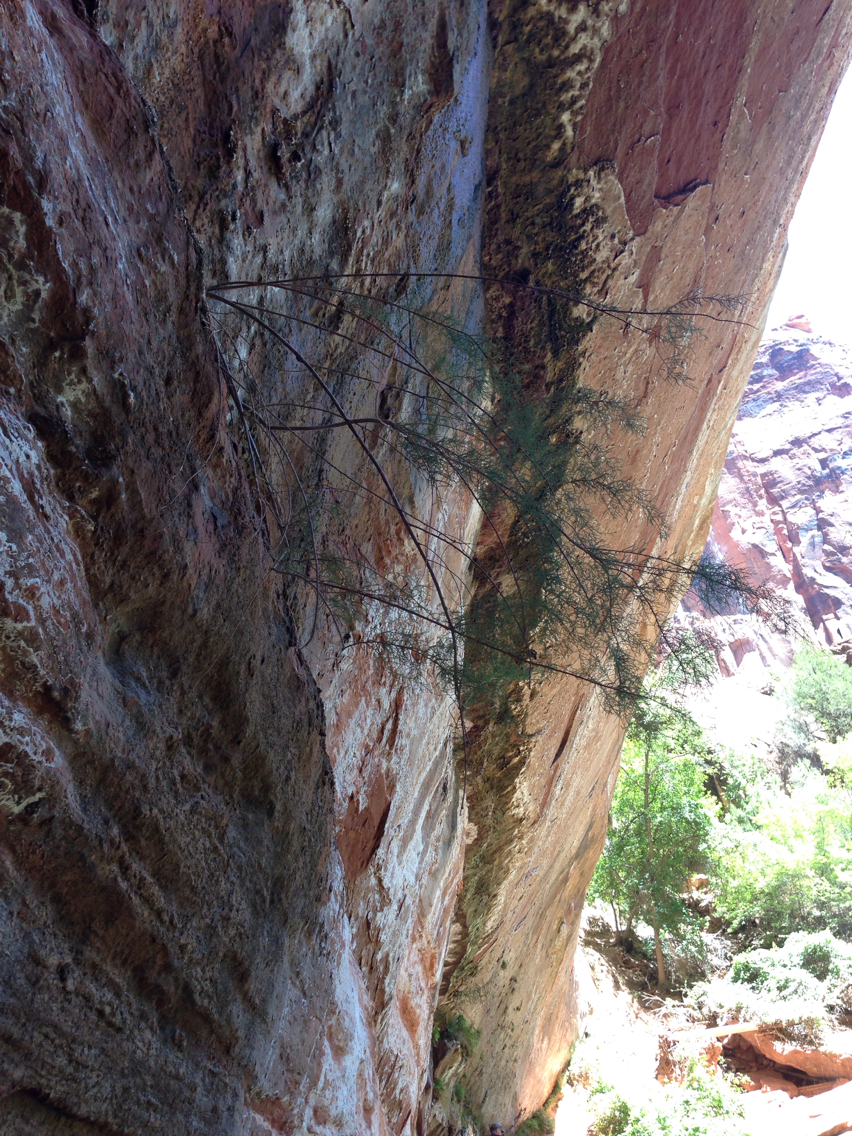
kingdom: Plantae
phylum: Tracheophyta
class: Magnoliopsida
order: Caryophyllales
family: Tamaricaceae
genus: Tamarix
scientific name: Tamarix ramosissima
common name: Pink tamarisk
